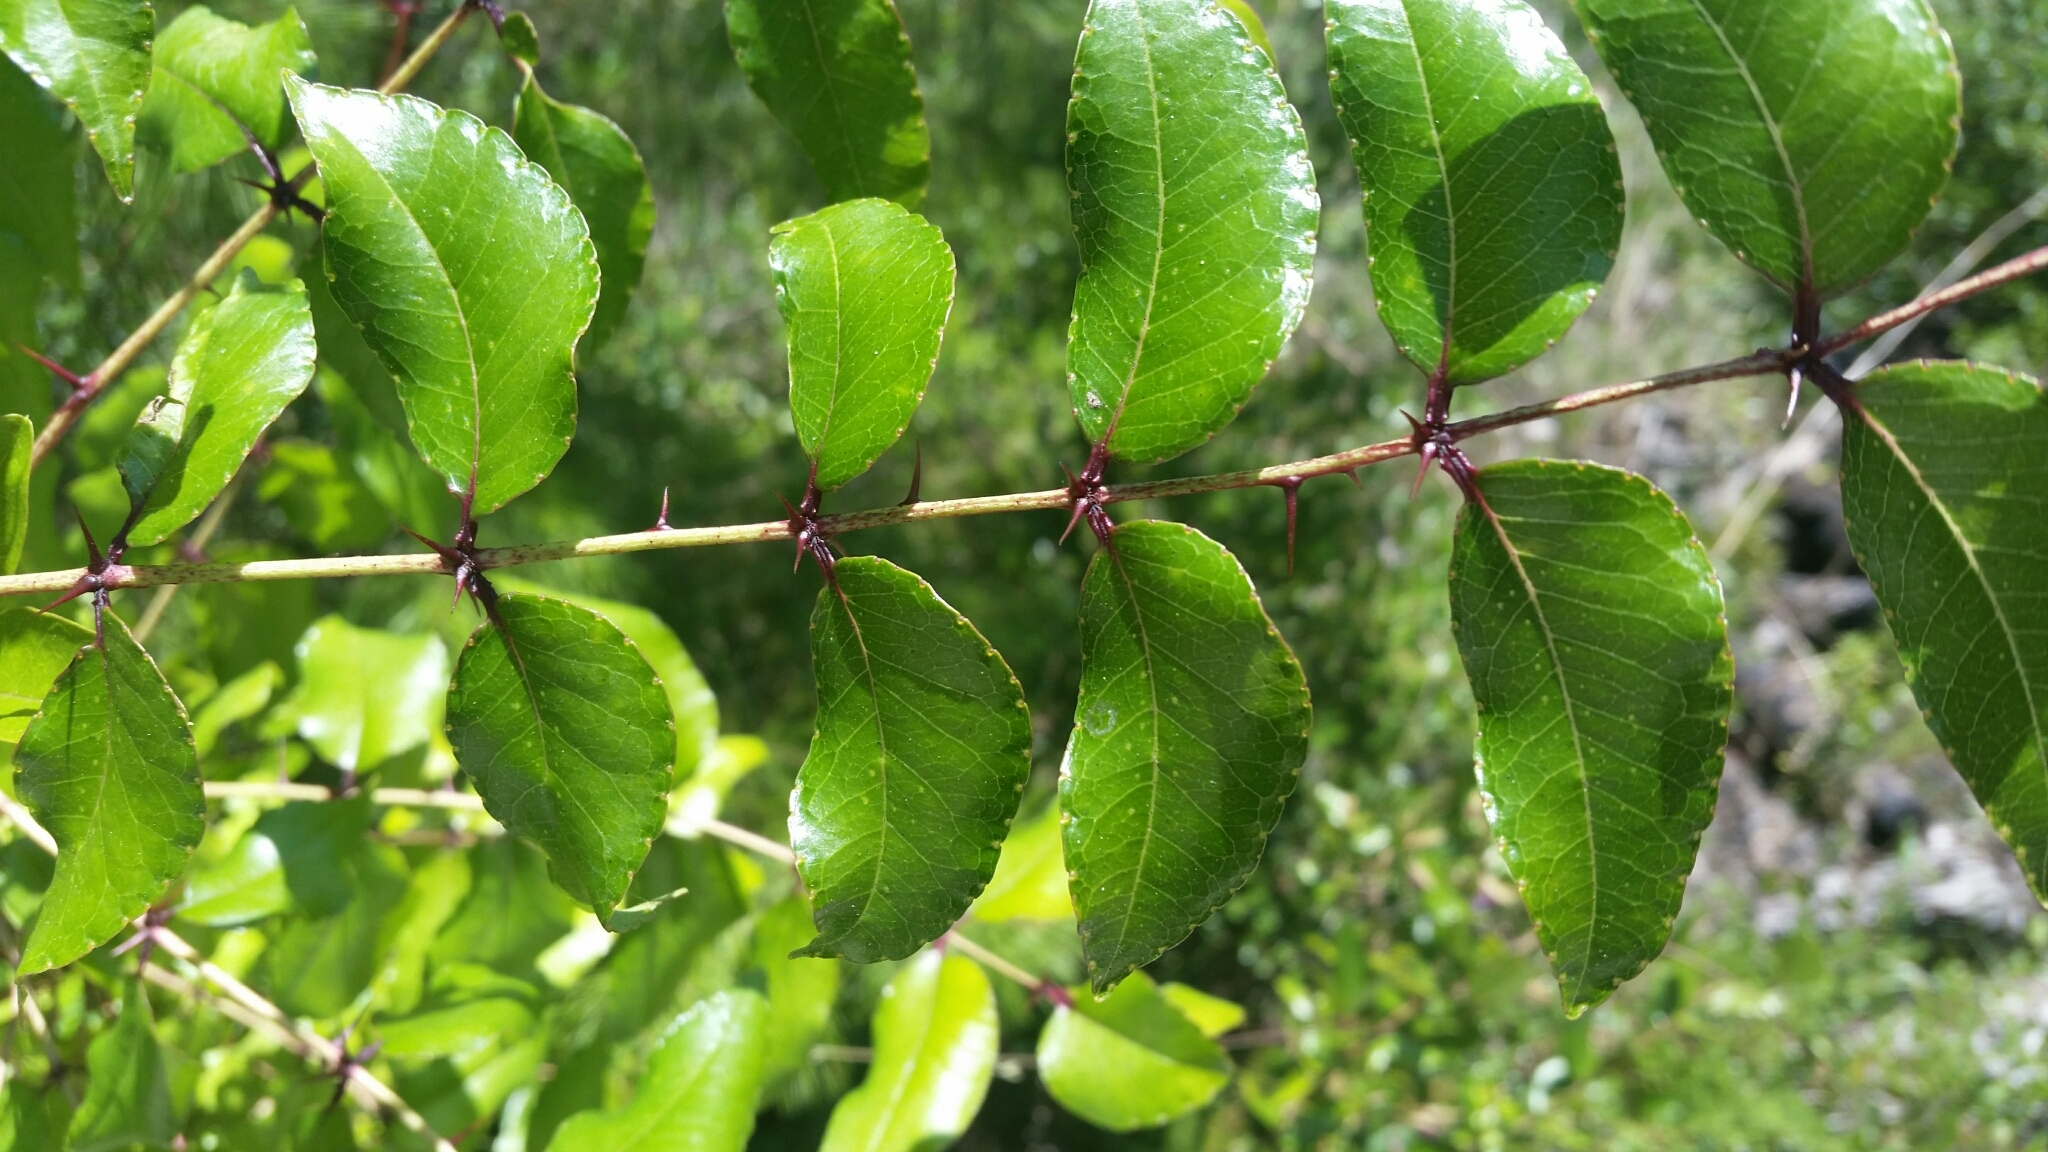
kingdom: Plantae
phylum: Tracheophyta
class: Magnoliopsida
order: Sapindales
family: Rutaceae
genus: Zanthoxylum
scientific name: Zanthoxylum clava-herculis
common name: Hercules'-club
